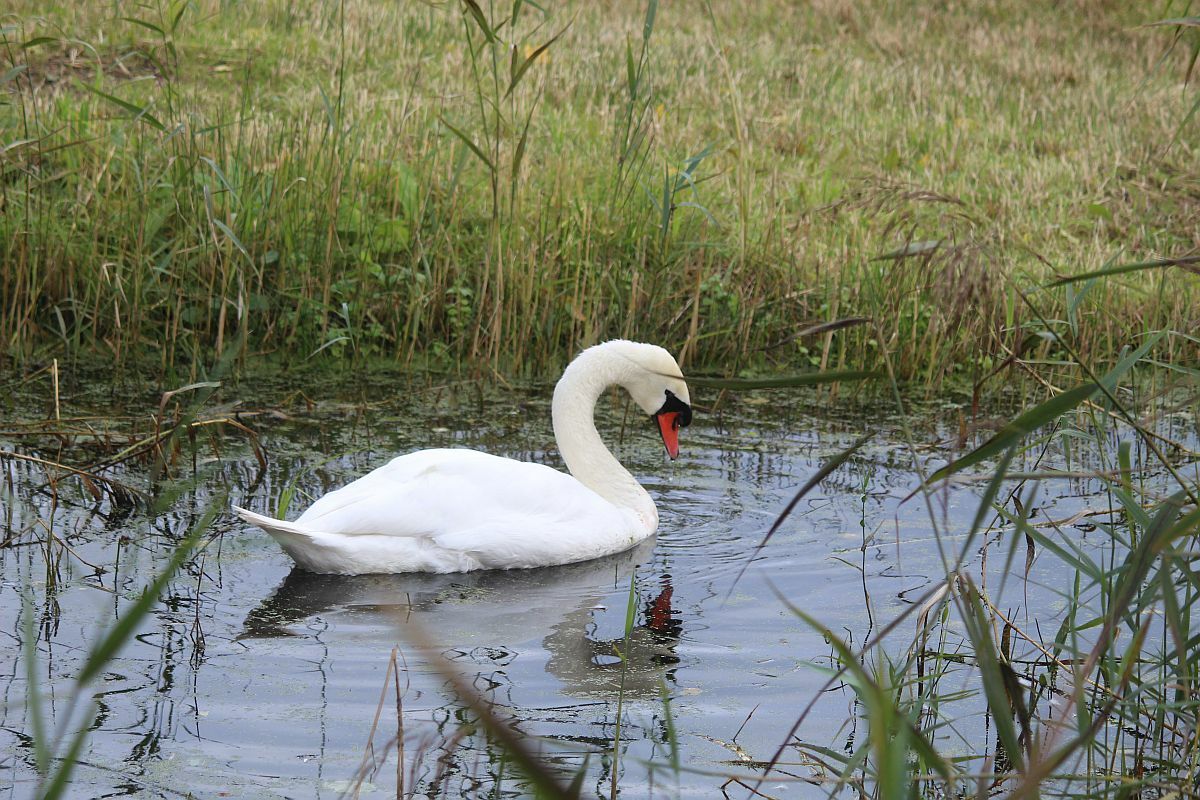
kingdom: Animalia
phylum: Chordata
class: Aves
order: Anseriformes
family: Anatidae
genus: Cygnus
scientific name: Cygnus olor
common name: Mute swan
